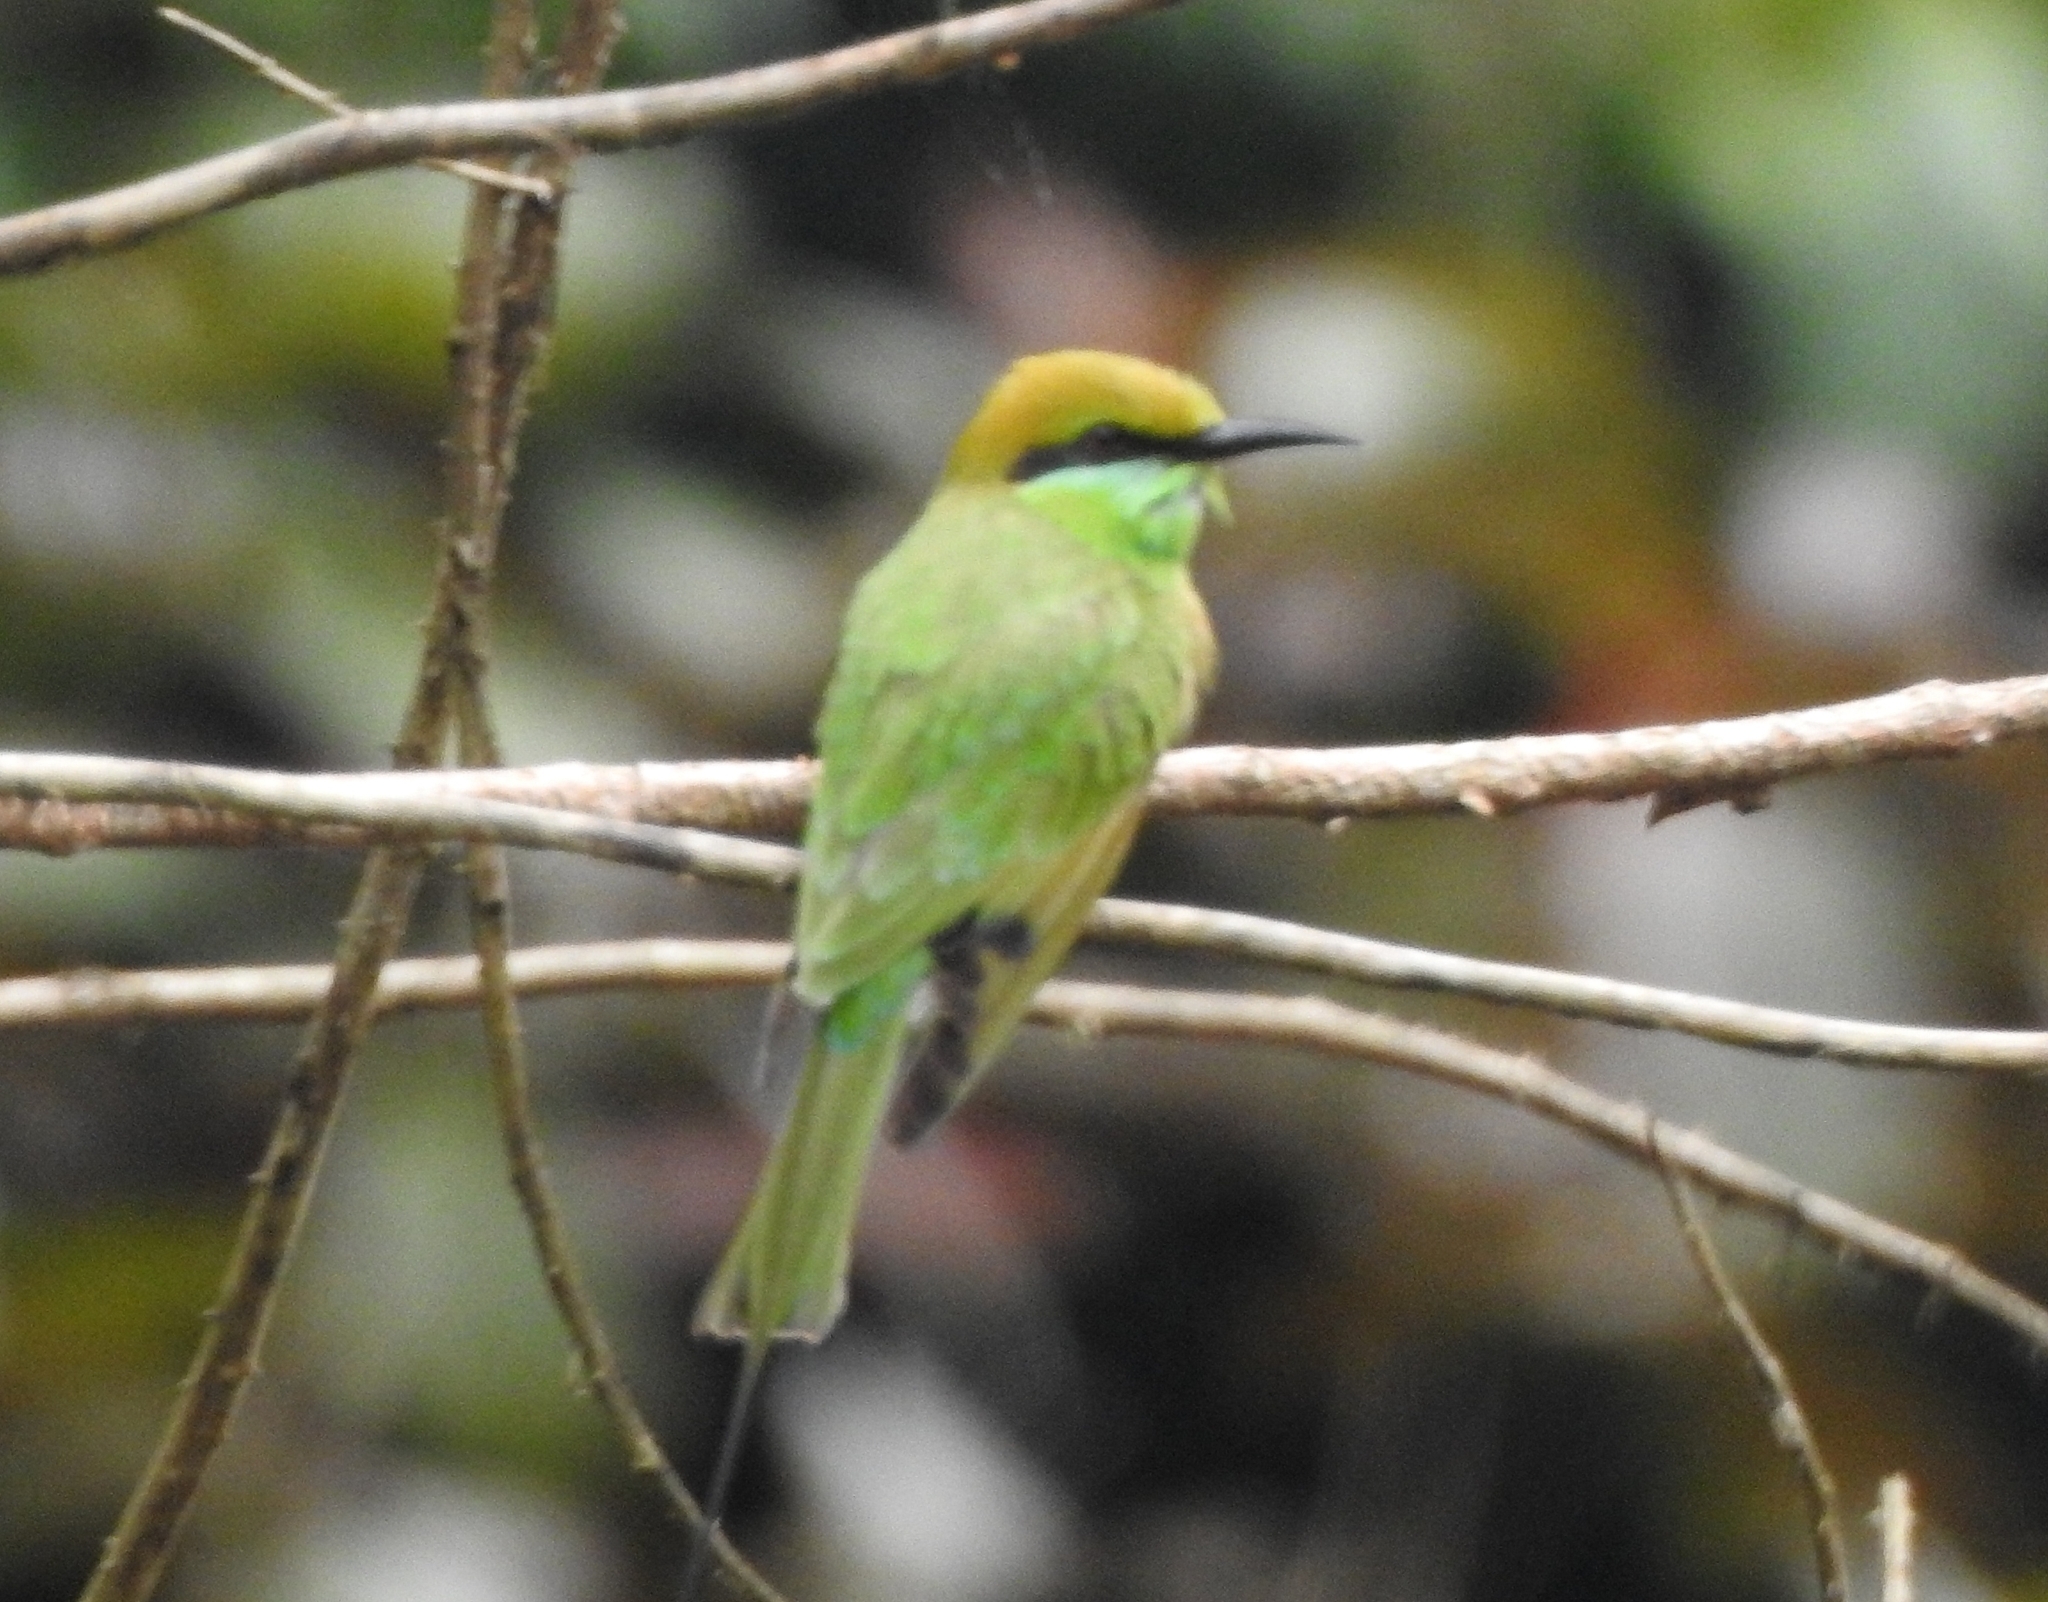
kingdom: Animalia
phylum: Chordata
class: Aves
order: Coraciiformes
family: Meropidae
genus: Merops
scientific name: Merops orientalis
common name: Green bee-eater
